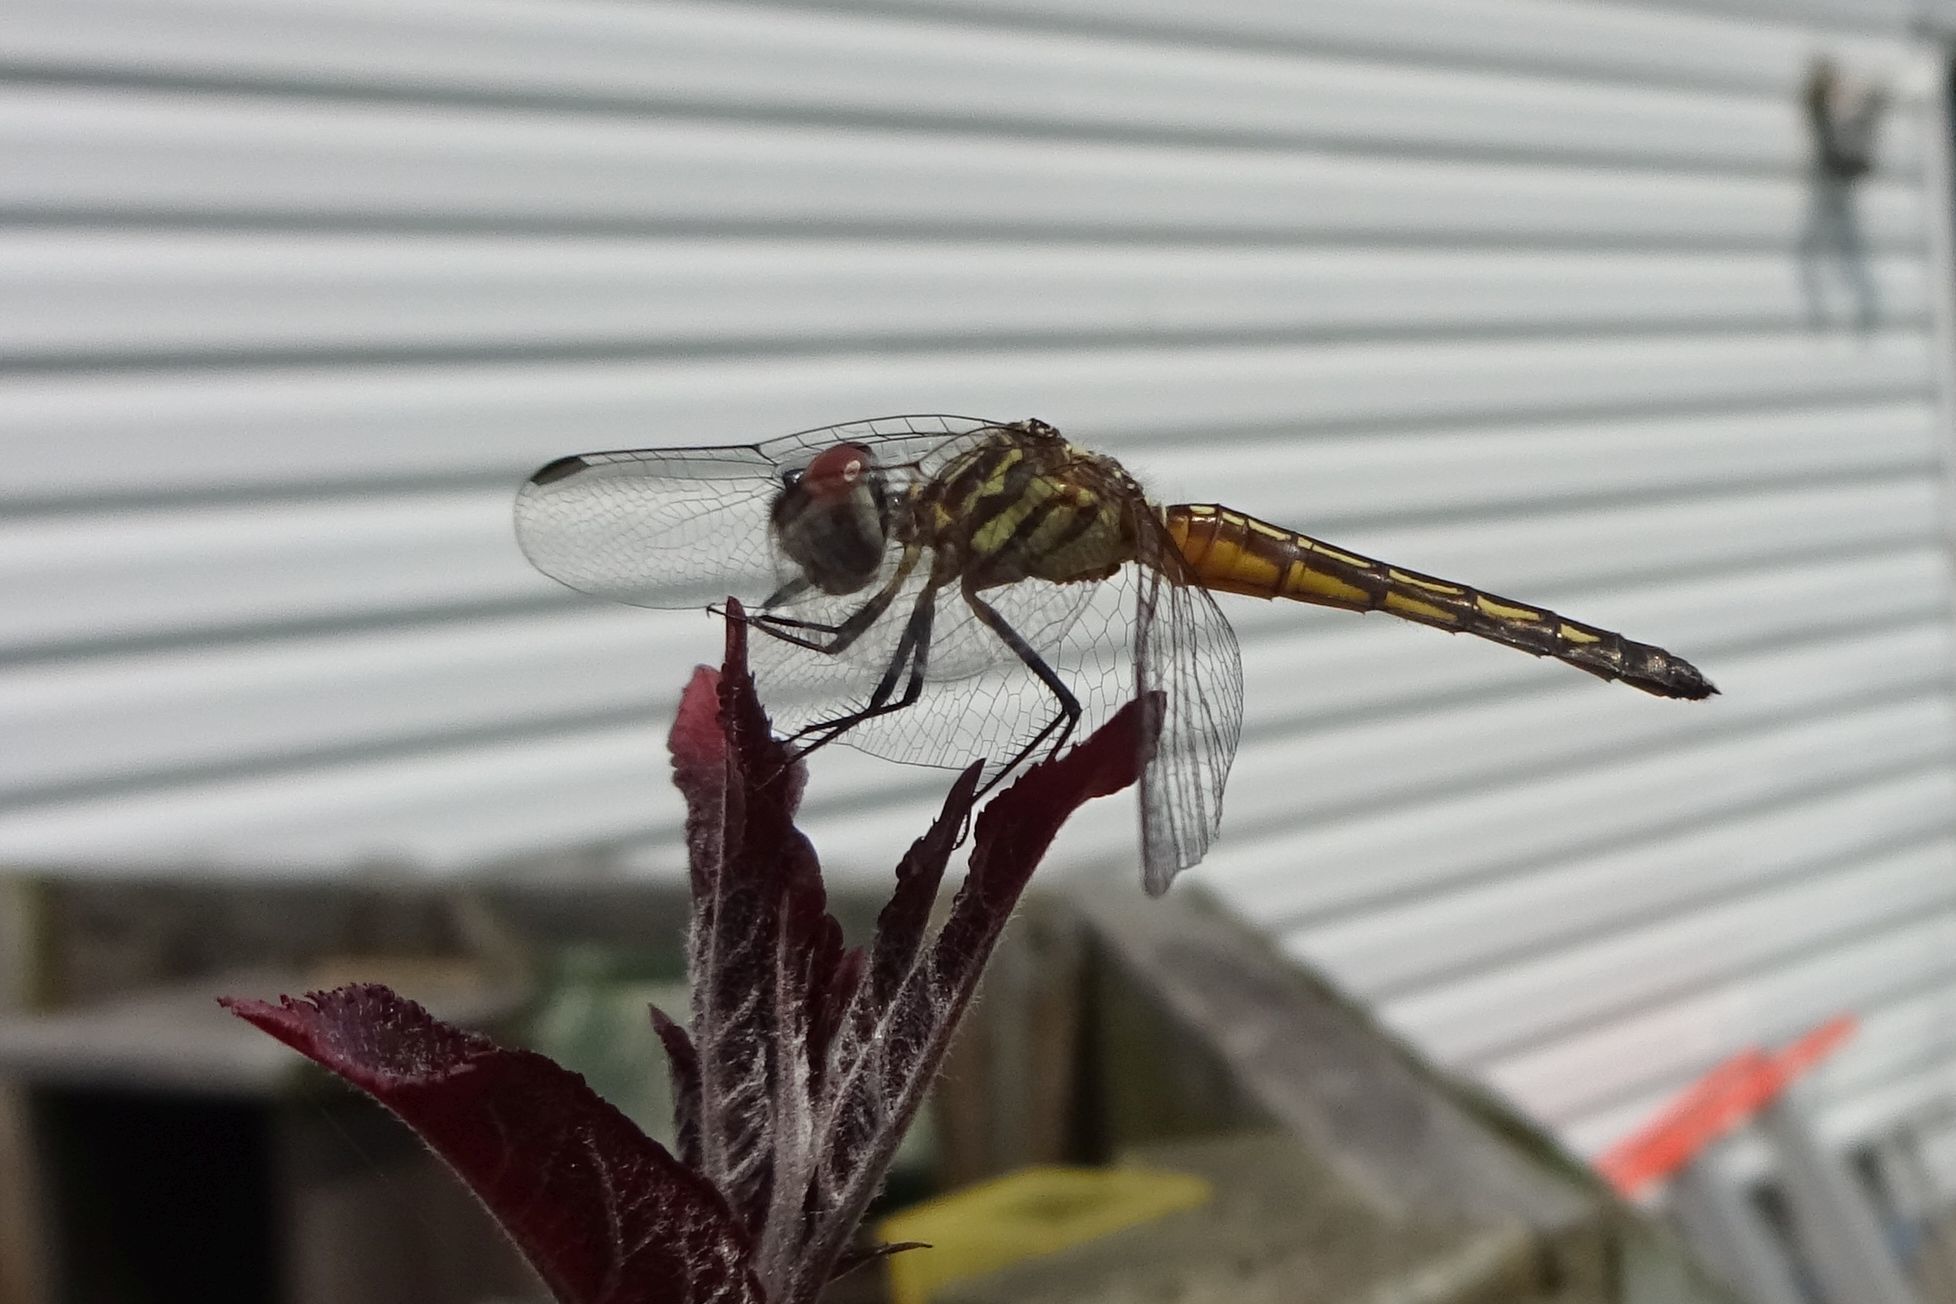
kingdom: Animalia
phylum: Arthropoda
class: Insecta
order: Odonata
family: Libellulidae
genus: Pachydiplax
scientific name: Pachydiplax longipennis
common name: Blue dasher
